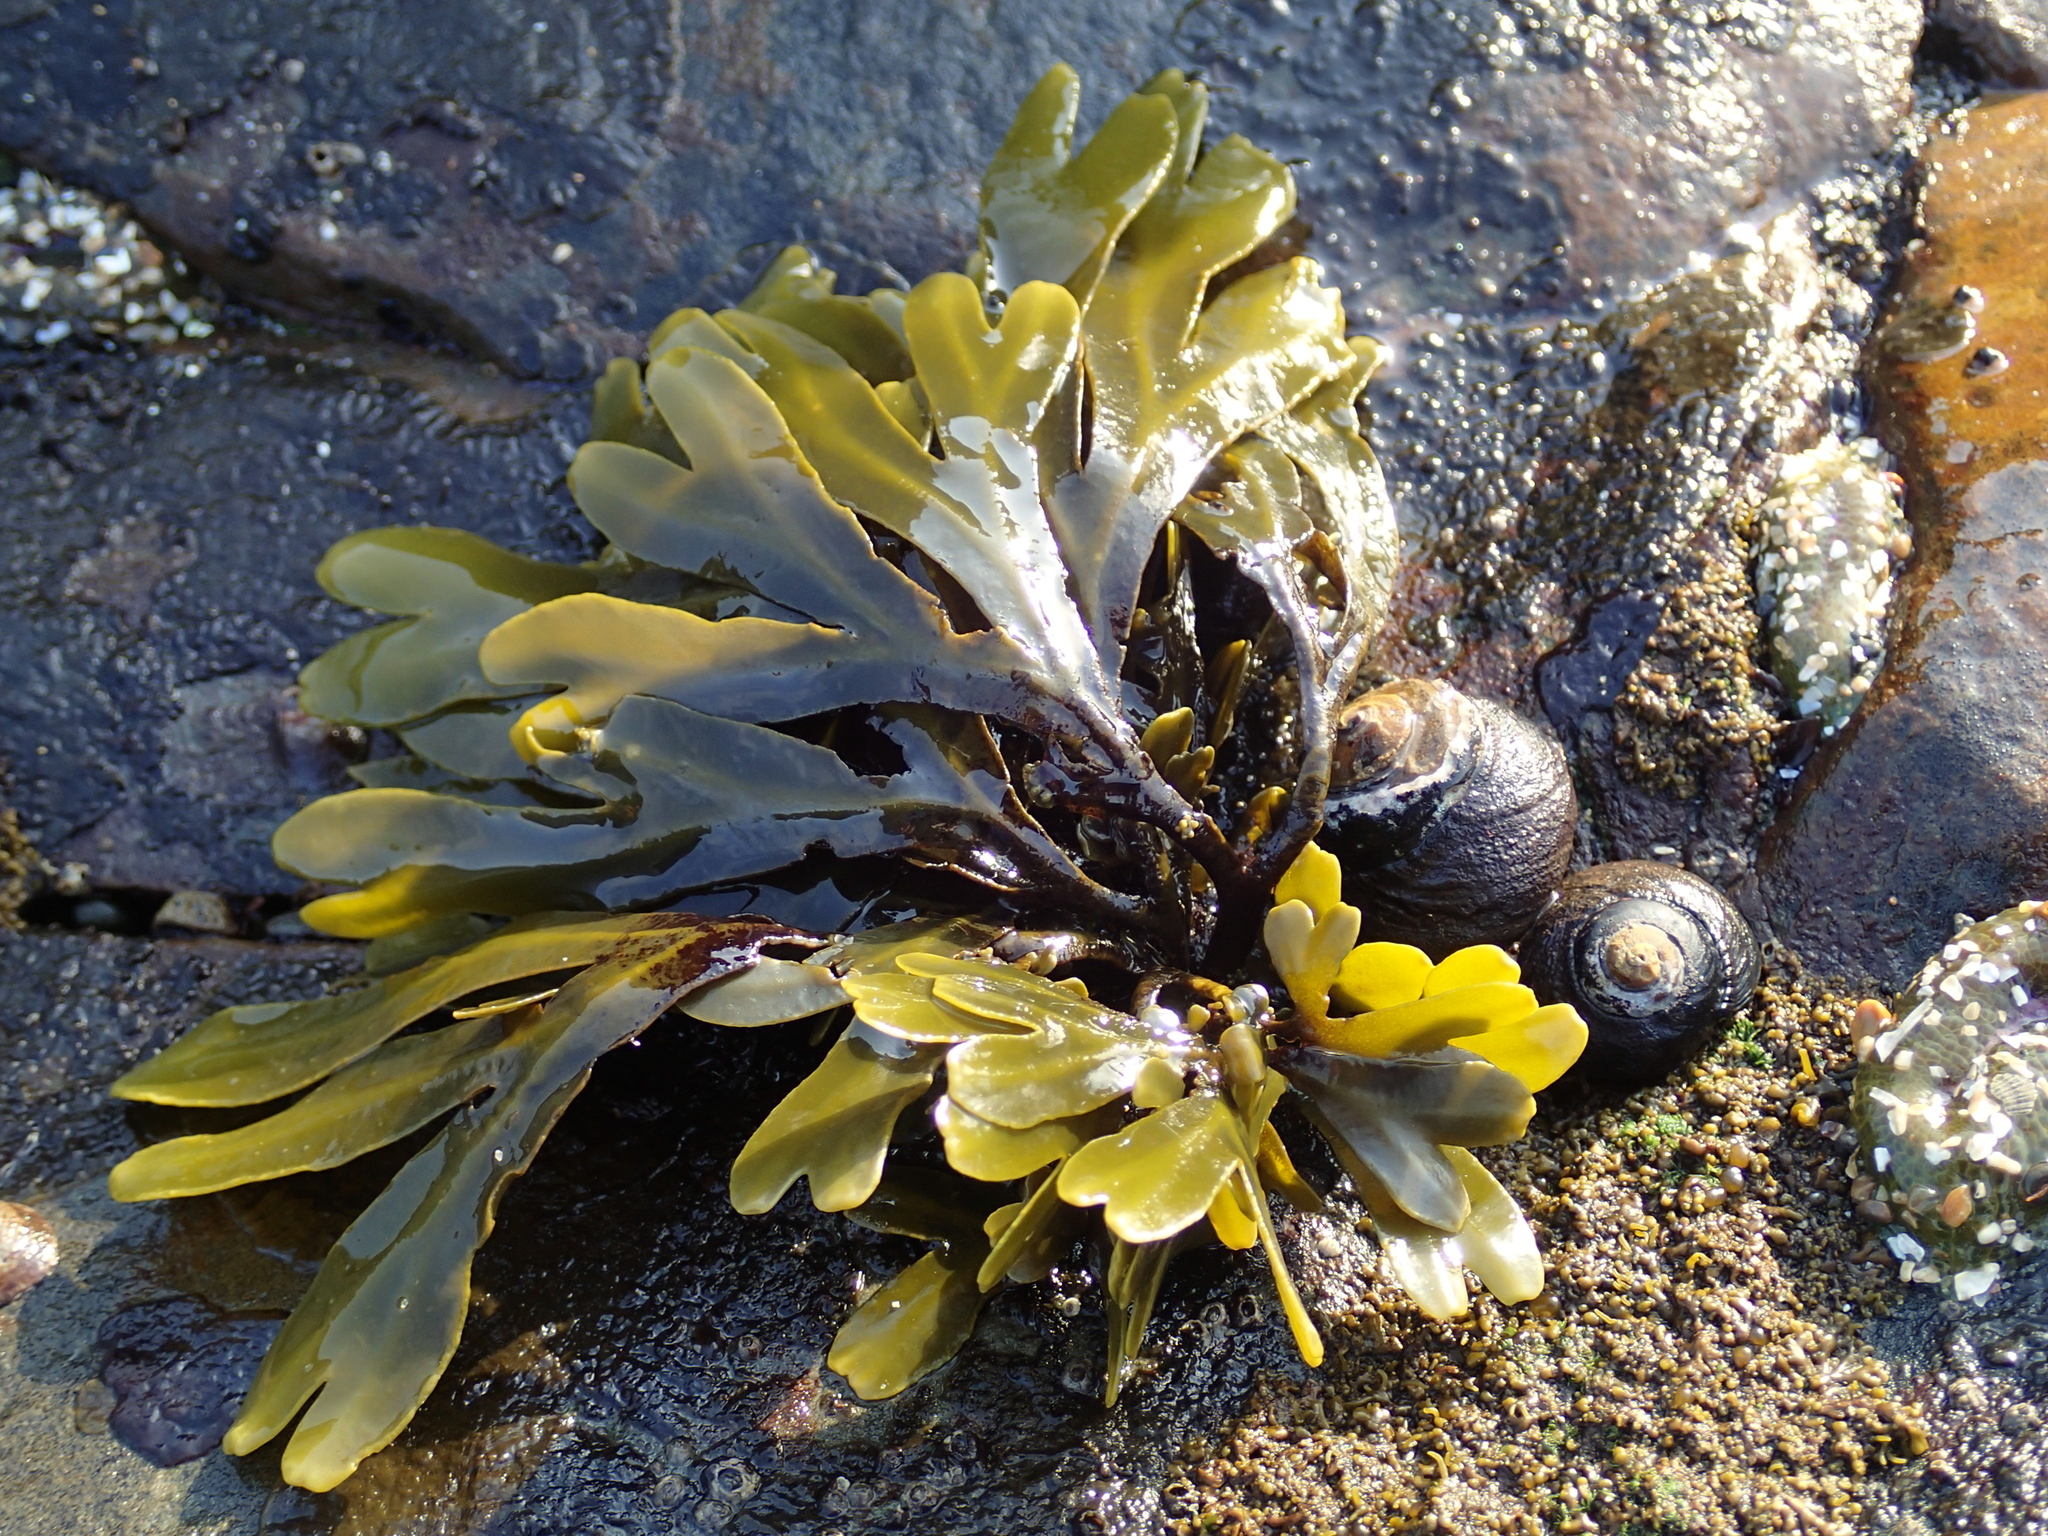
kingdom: Chromista
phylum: Ochrophyta
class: Phaeophyceae
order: Fucales
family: Fucaceae
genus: Fucus
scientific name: Fucus distichus
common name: Rockweed
